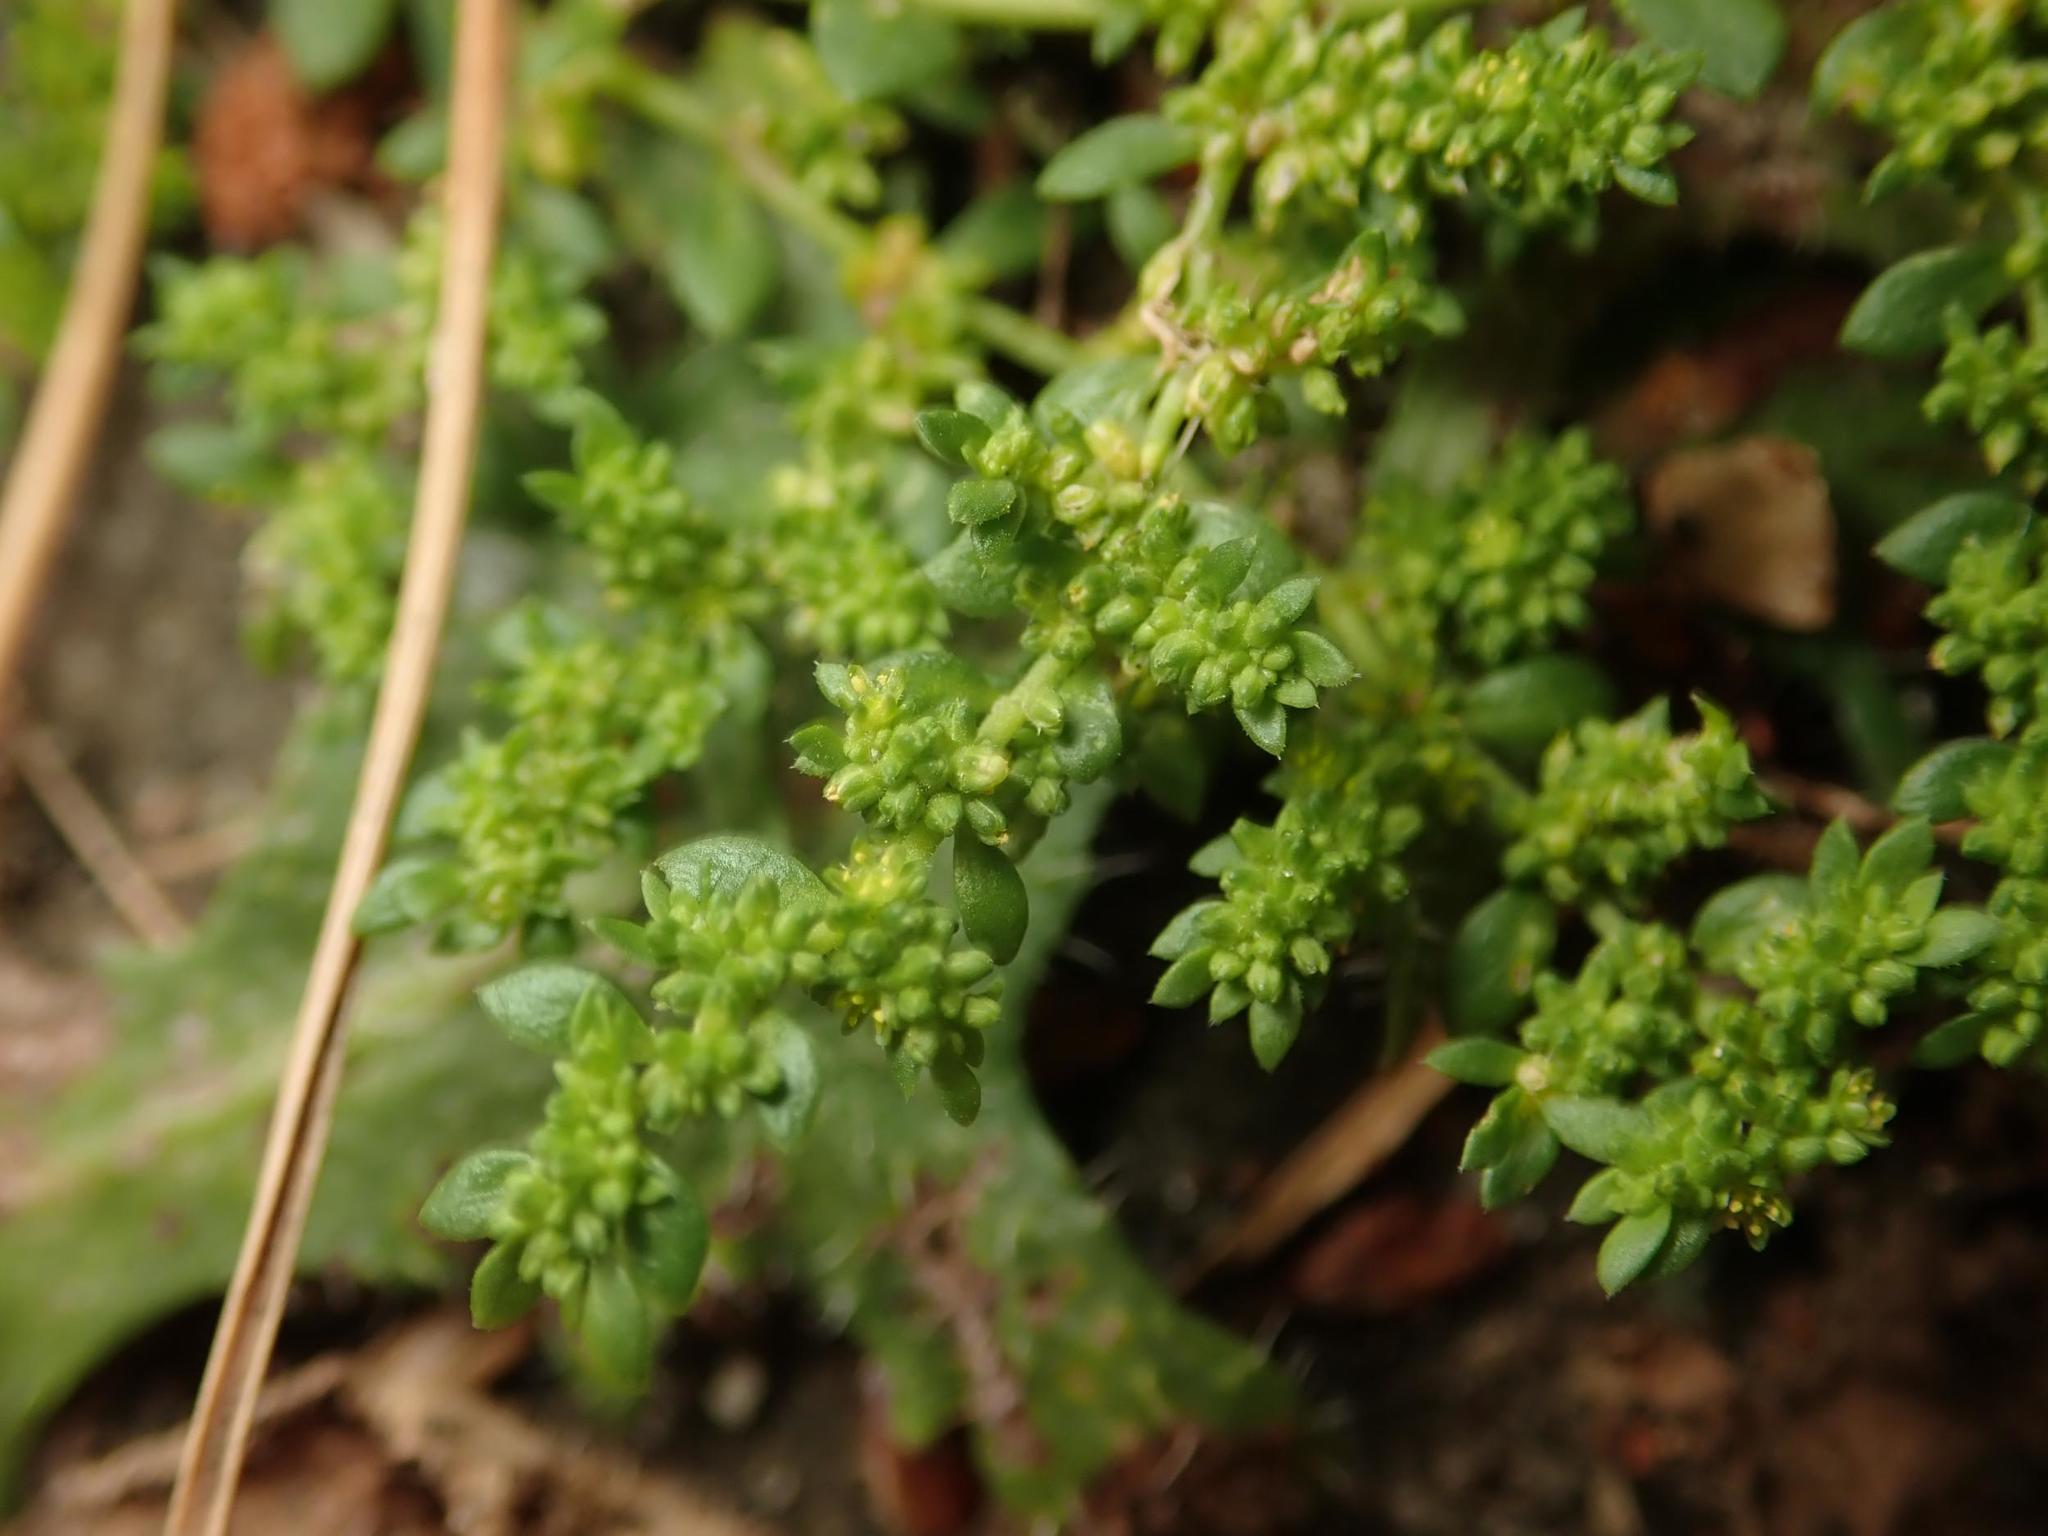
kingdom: Plantae
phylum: Tracheophyta
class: Magnoliopsida
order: Caryophyllales
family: Caryophyllaceae
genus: Herniaria
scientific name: Herniaria glabra
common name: Smooth rupturewort
